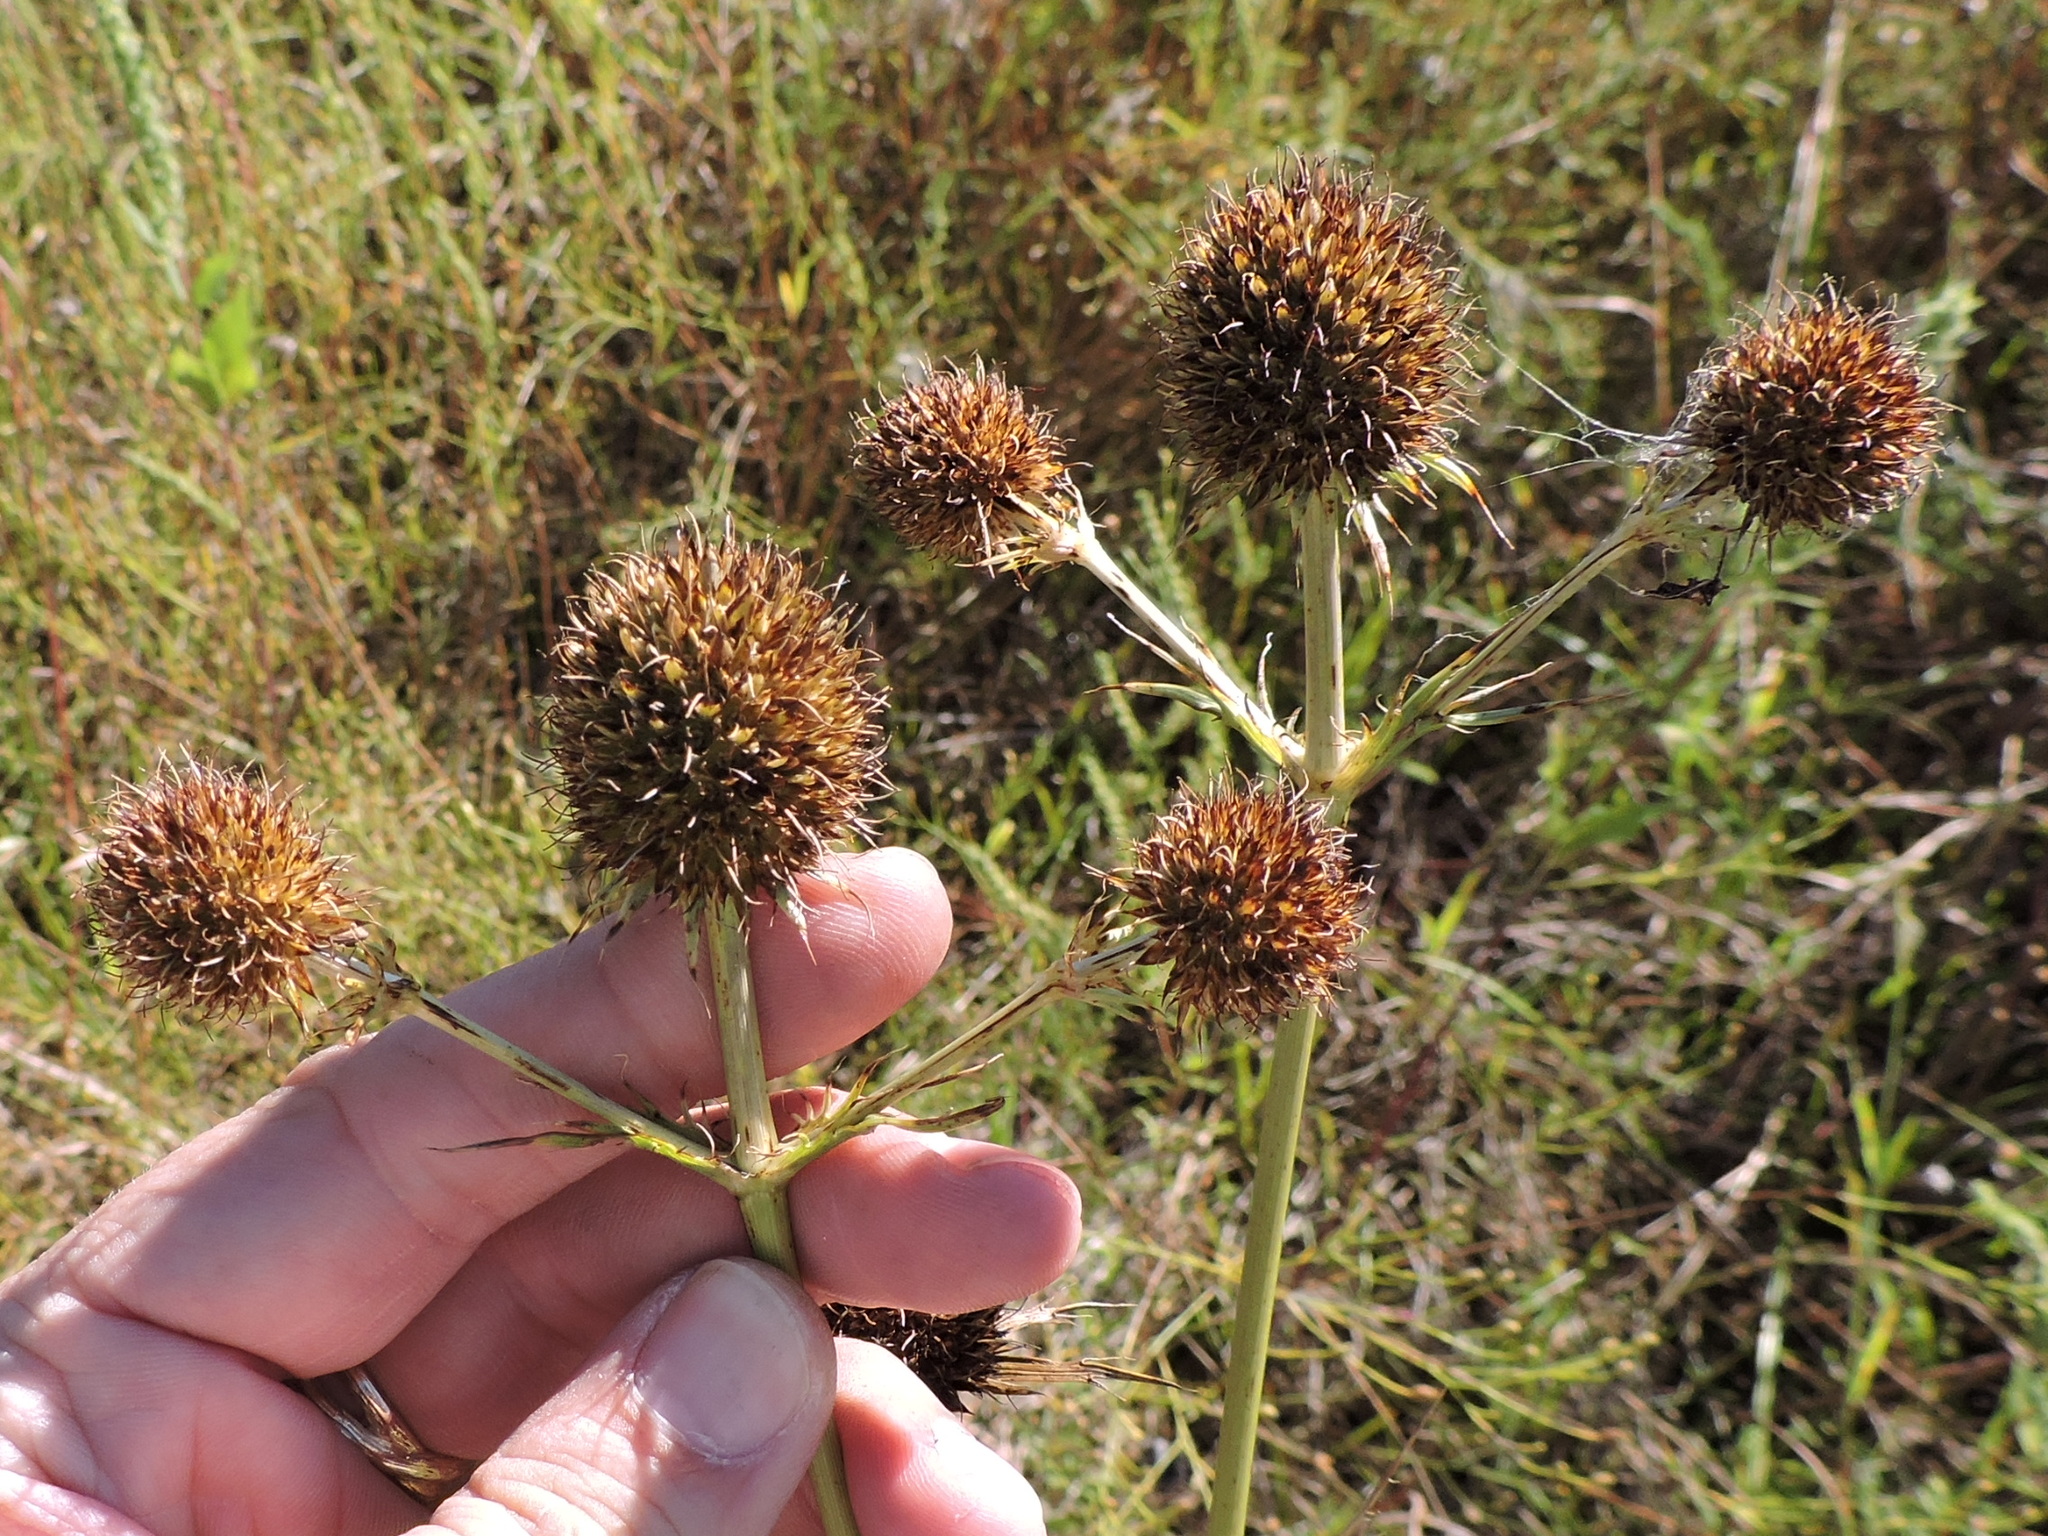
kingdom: Plantae
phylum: Tracheophyta
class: Magnoliopsida
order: Apiales
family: Apiaceae
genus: Eryngium
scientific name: Eryngium yuccifolium
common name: Button eryngo
